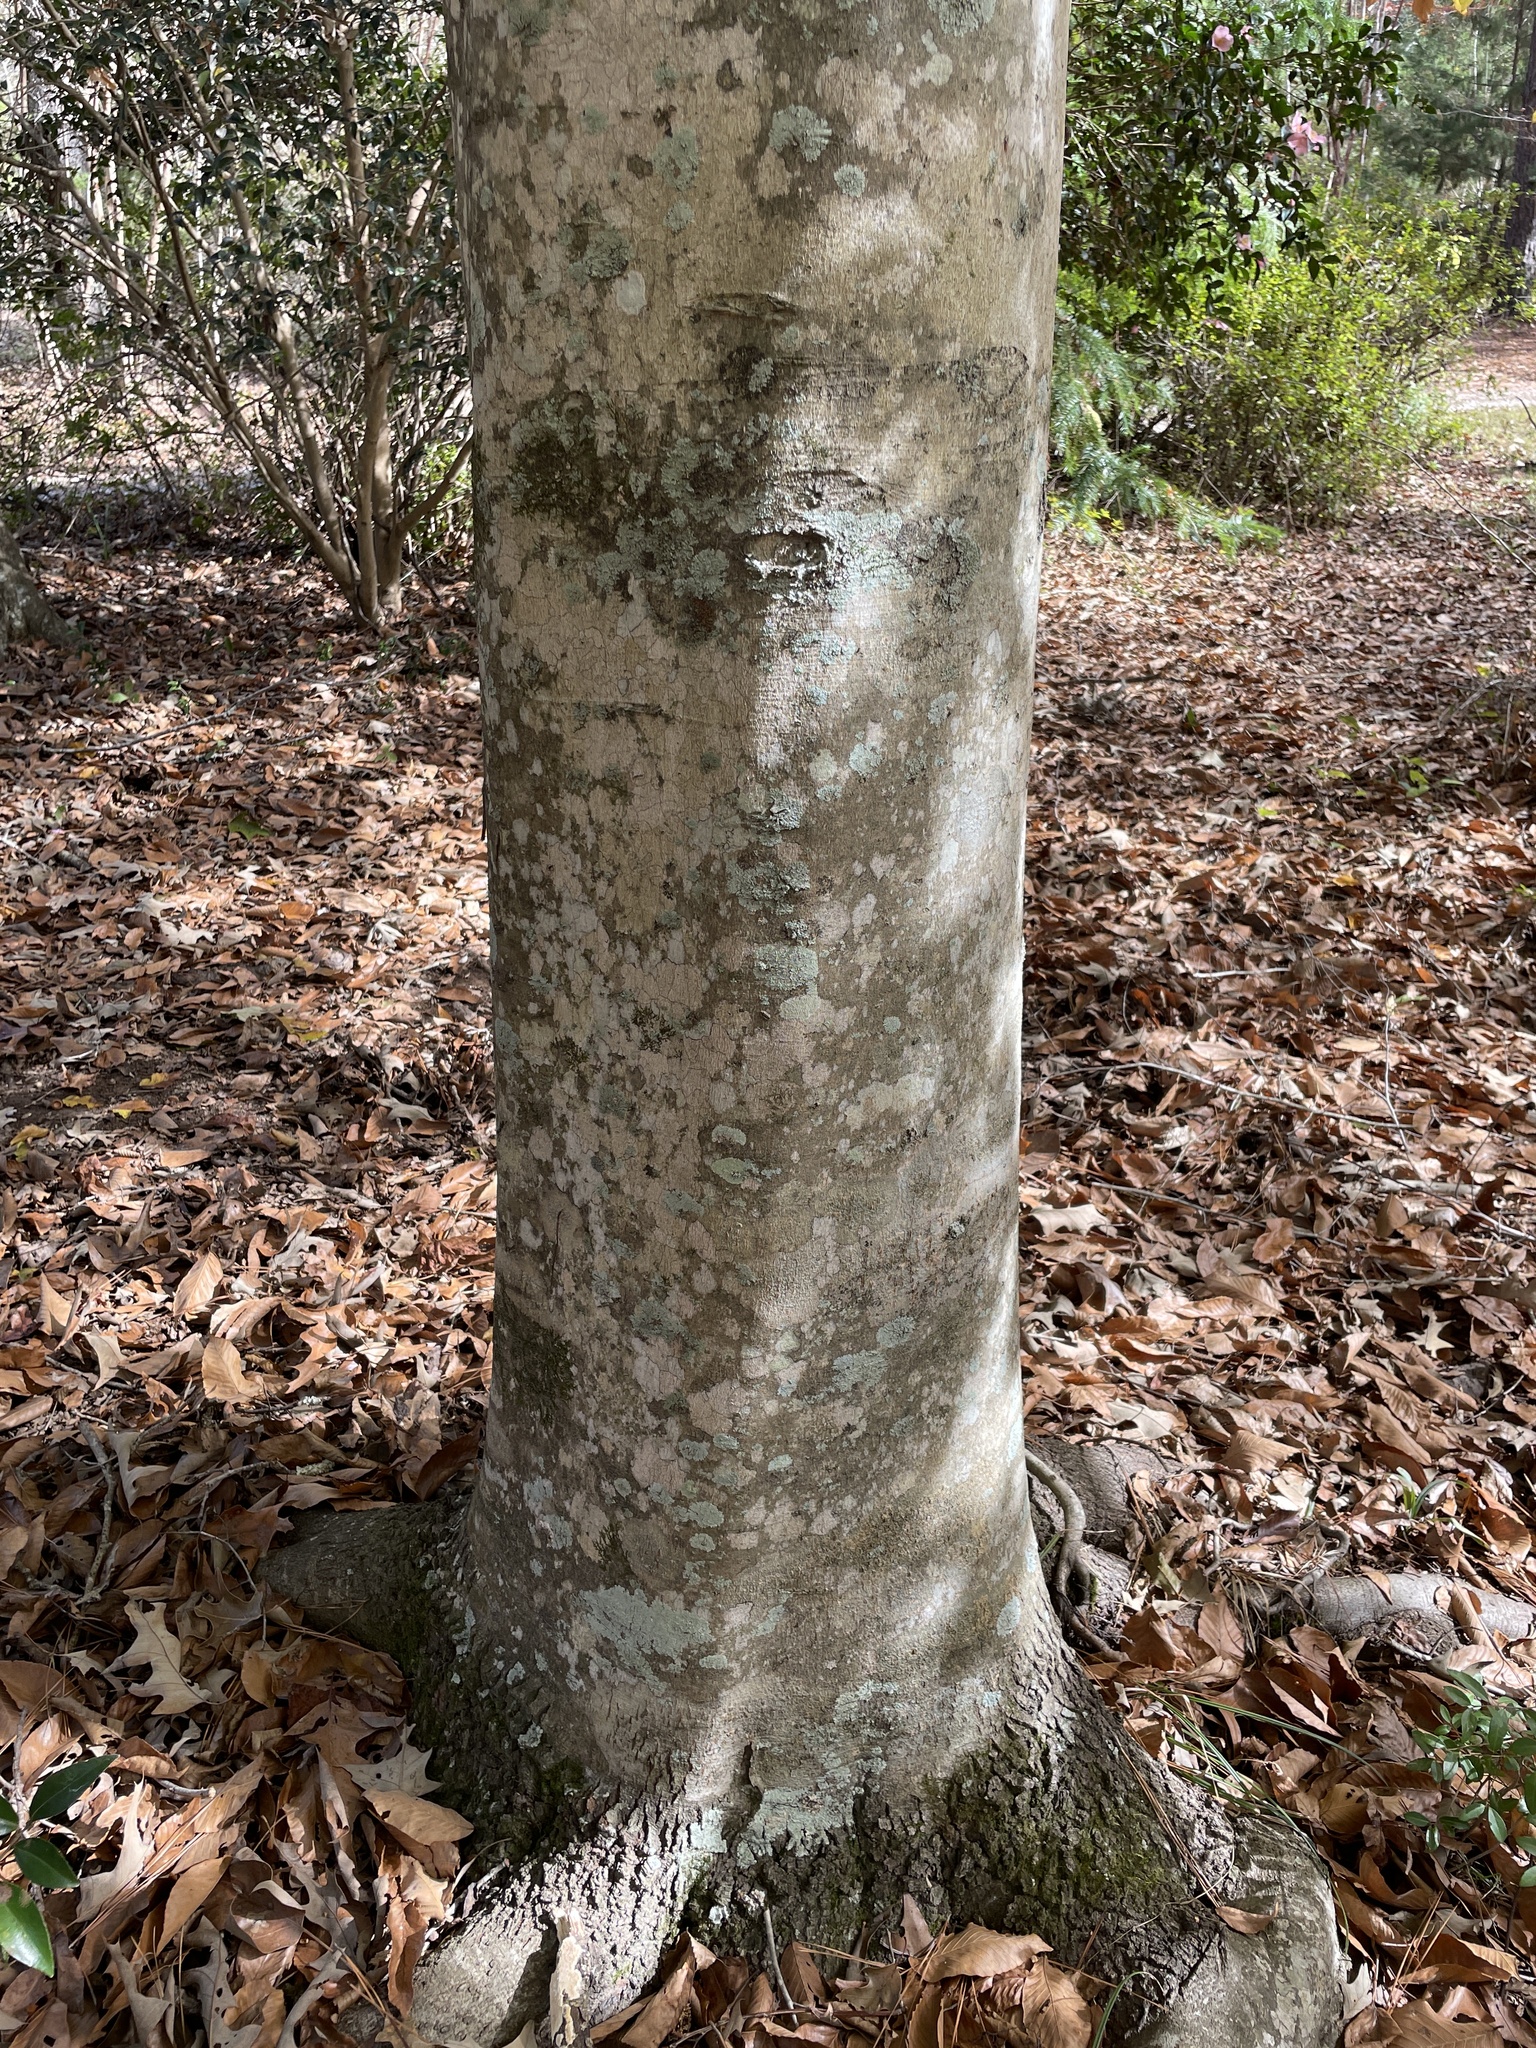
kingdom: Plantae
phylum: Tracheophyta
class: Magnoliopsida
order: Fagales
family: Fagaceae
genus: Fagus
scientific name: Fagus grandifolia
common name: American beech
